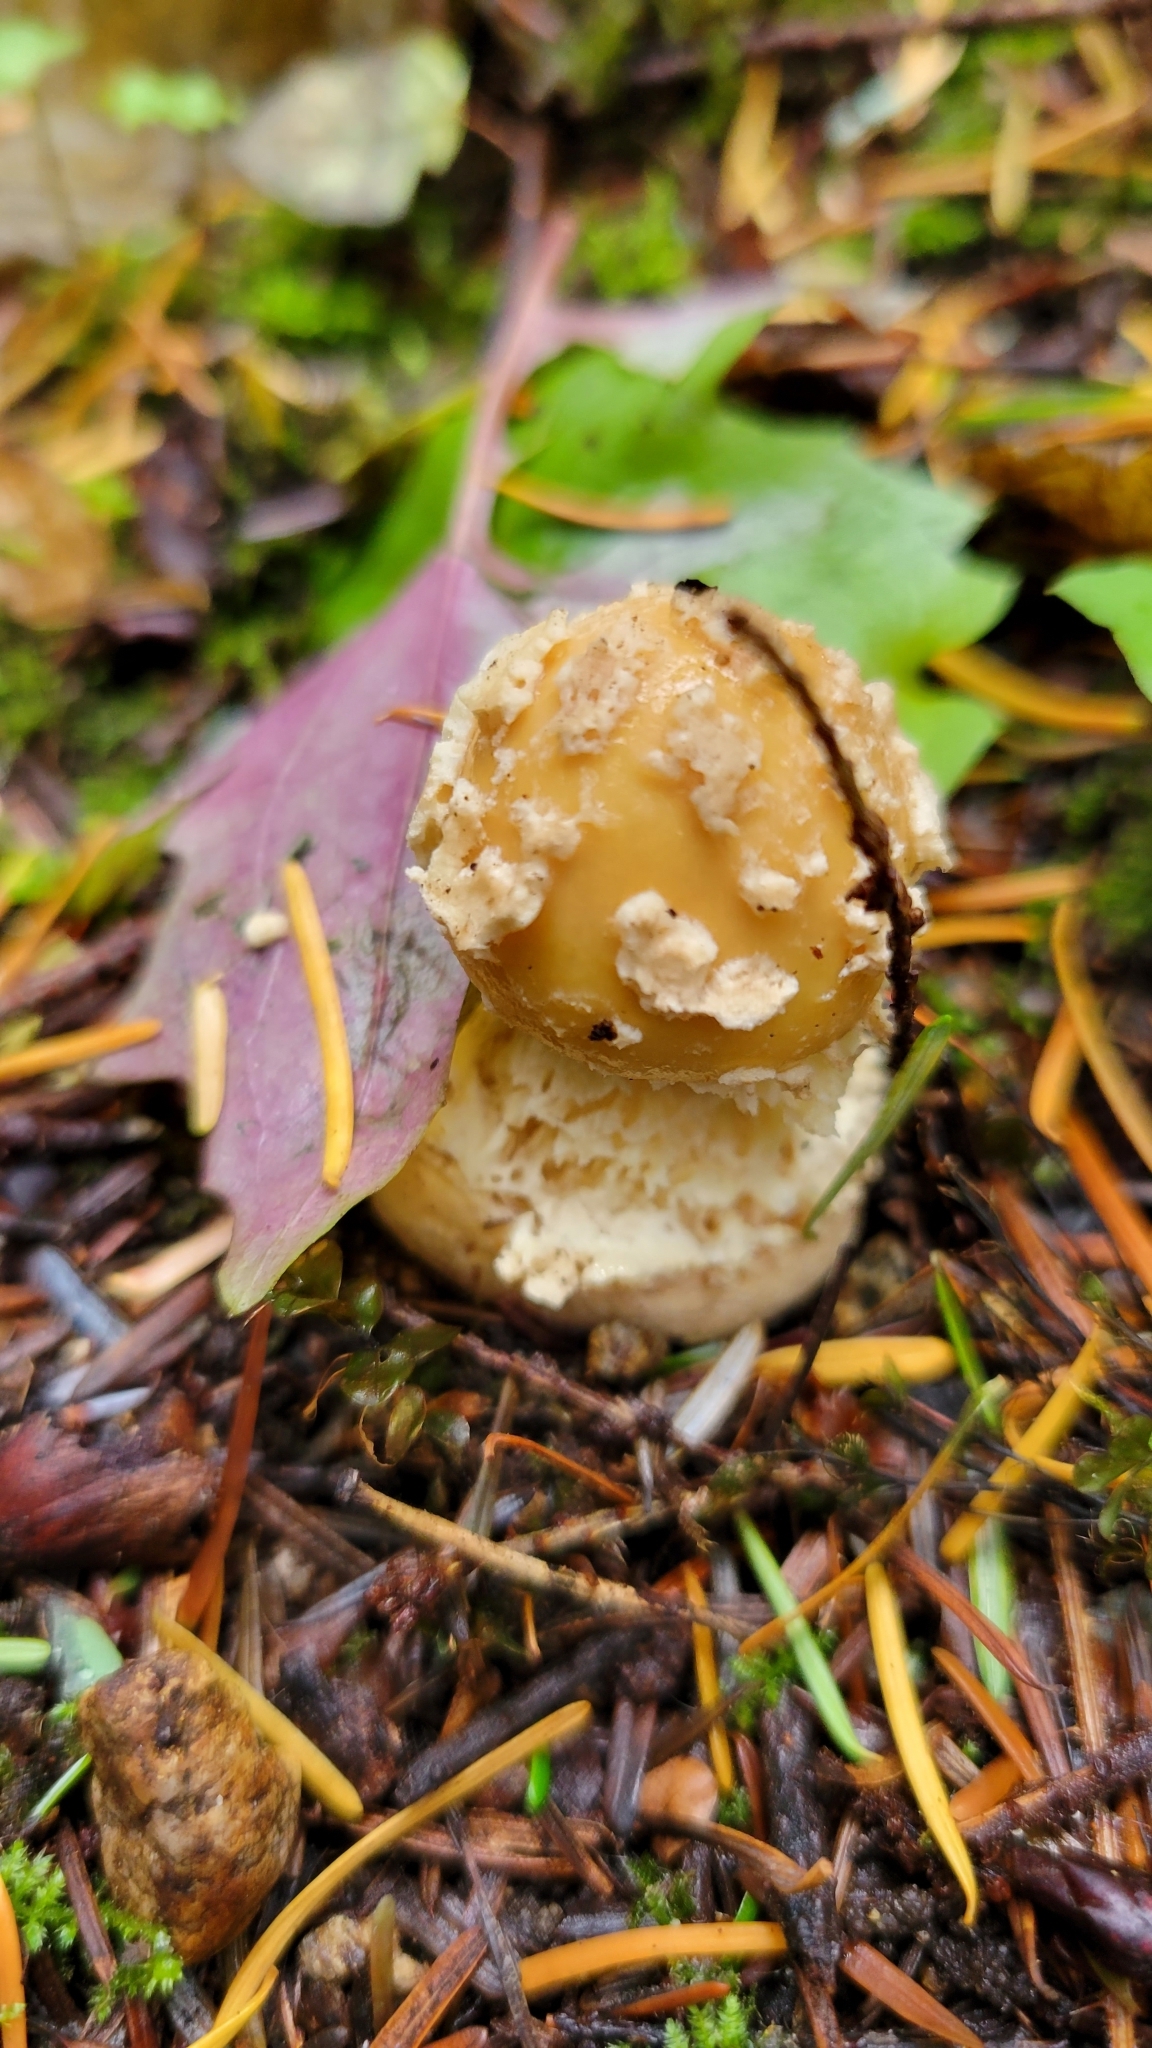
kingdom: Fungi
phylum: Basidiomycota
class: Agaricomycetes
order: Agaricales
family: Amanitaceae
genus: Amanita
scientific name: Amanita pantherinoides
